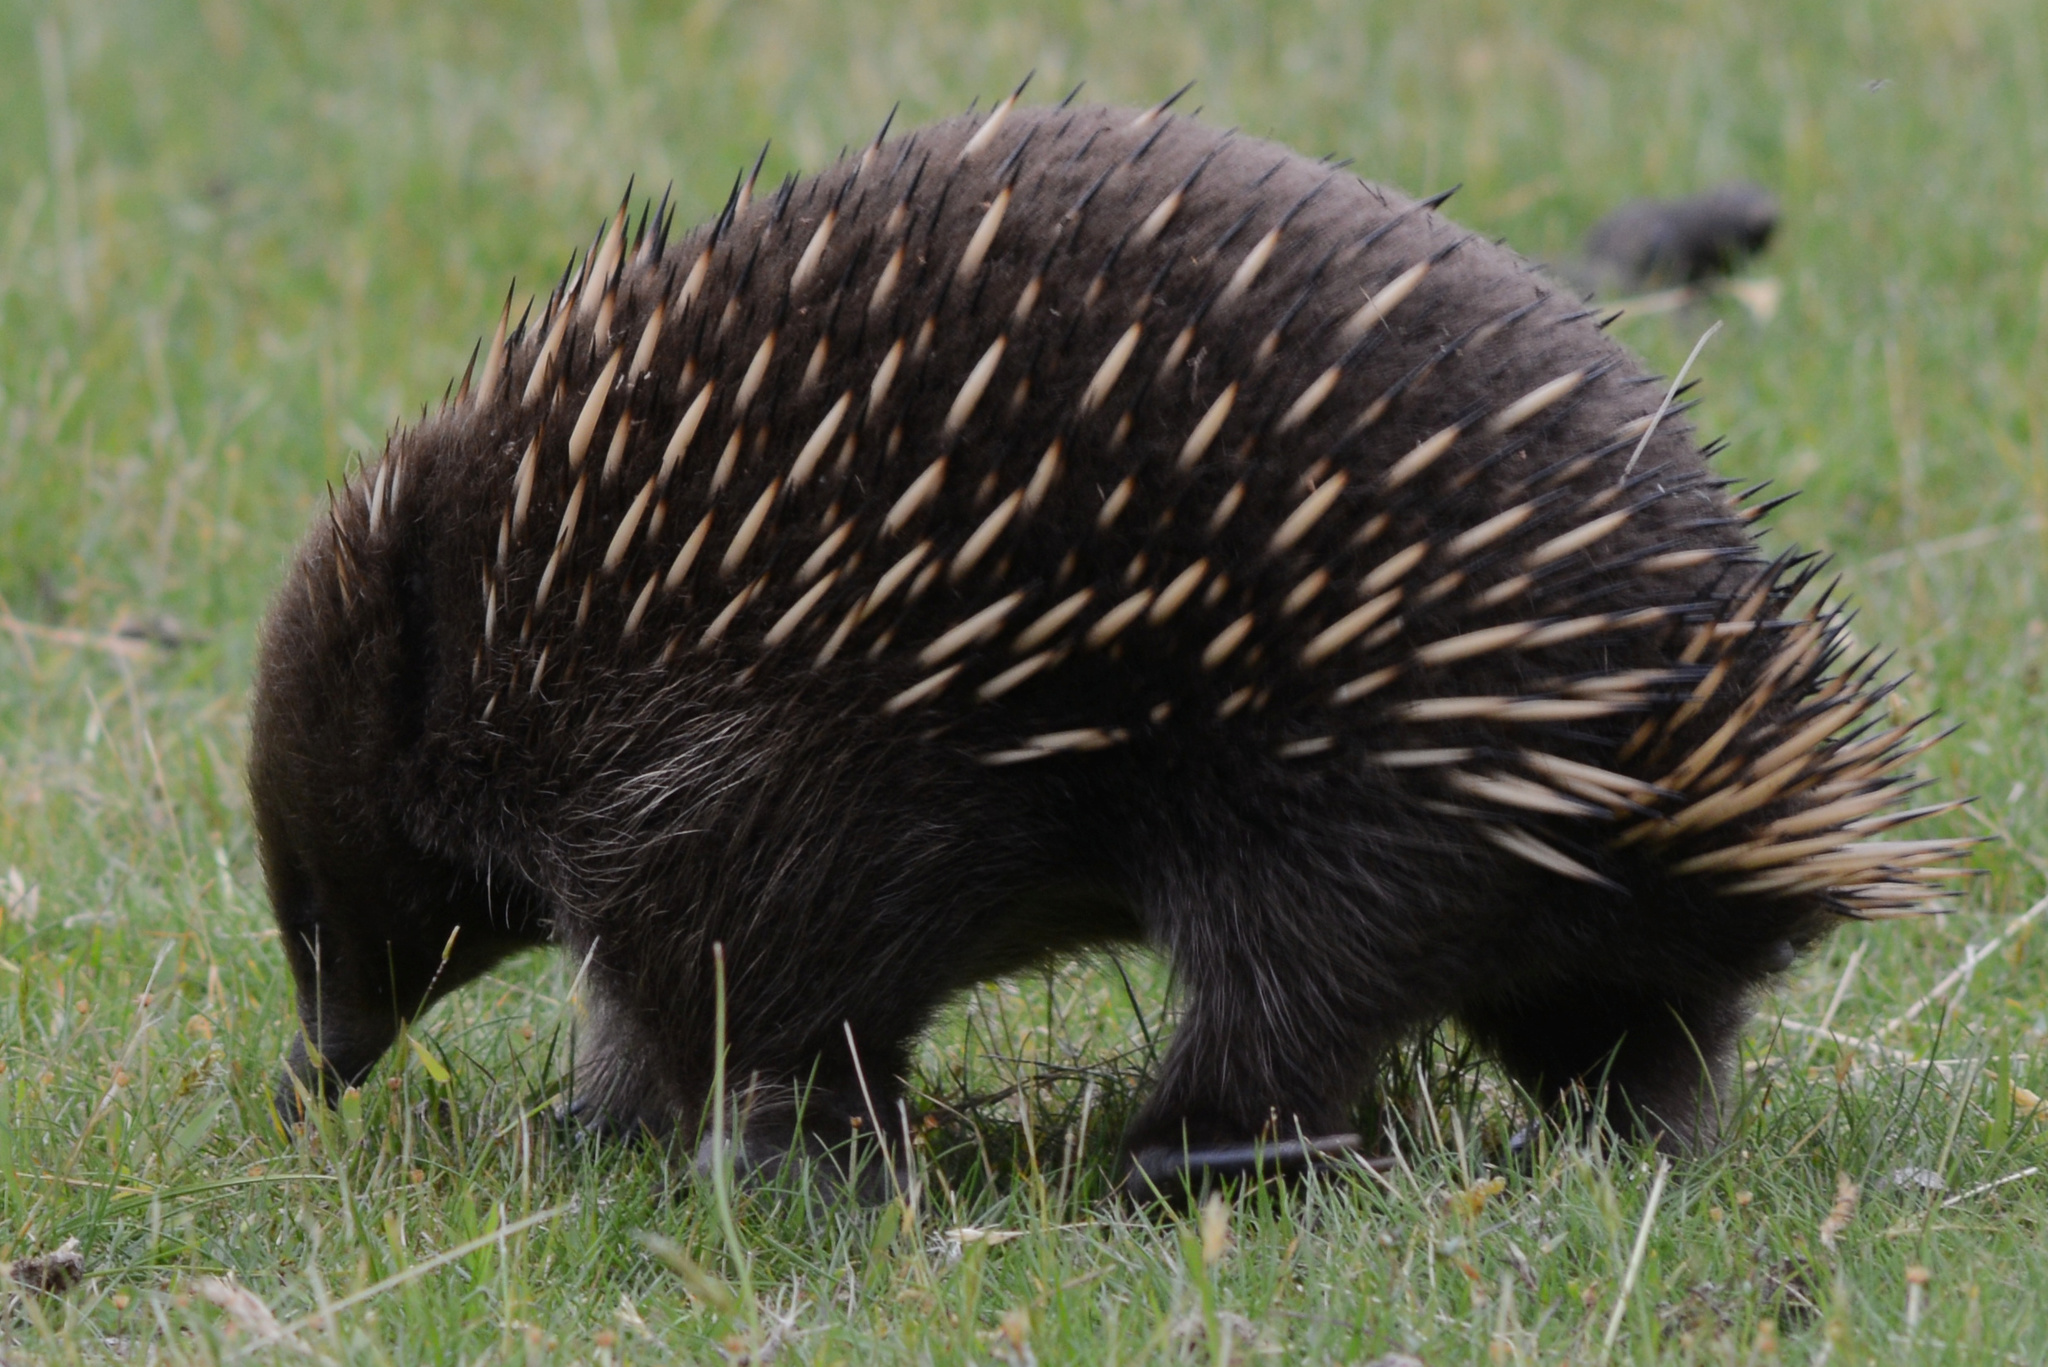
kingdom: Animalia
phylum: Chordata
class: Mammalia
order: Monotremata
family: Tachyglossidae
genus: Tachyglossus
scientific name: Tachyglossus aculeatus
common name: Short-beaked echidna
